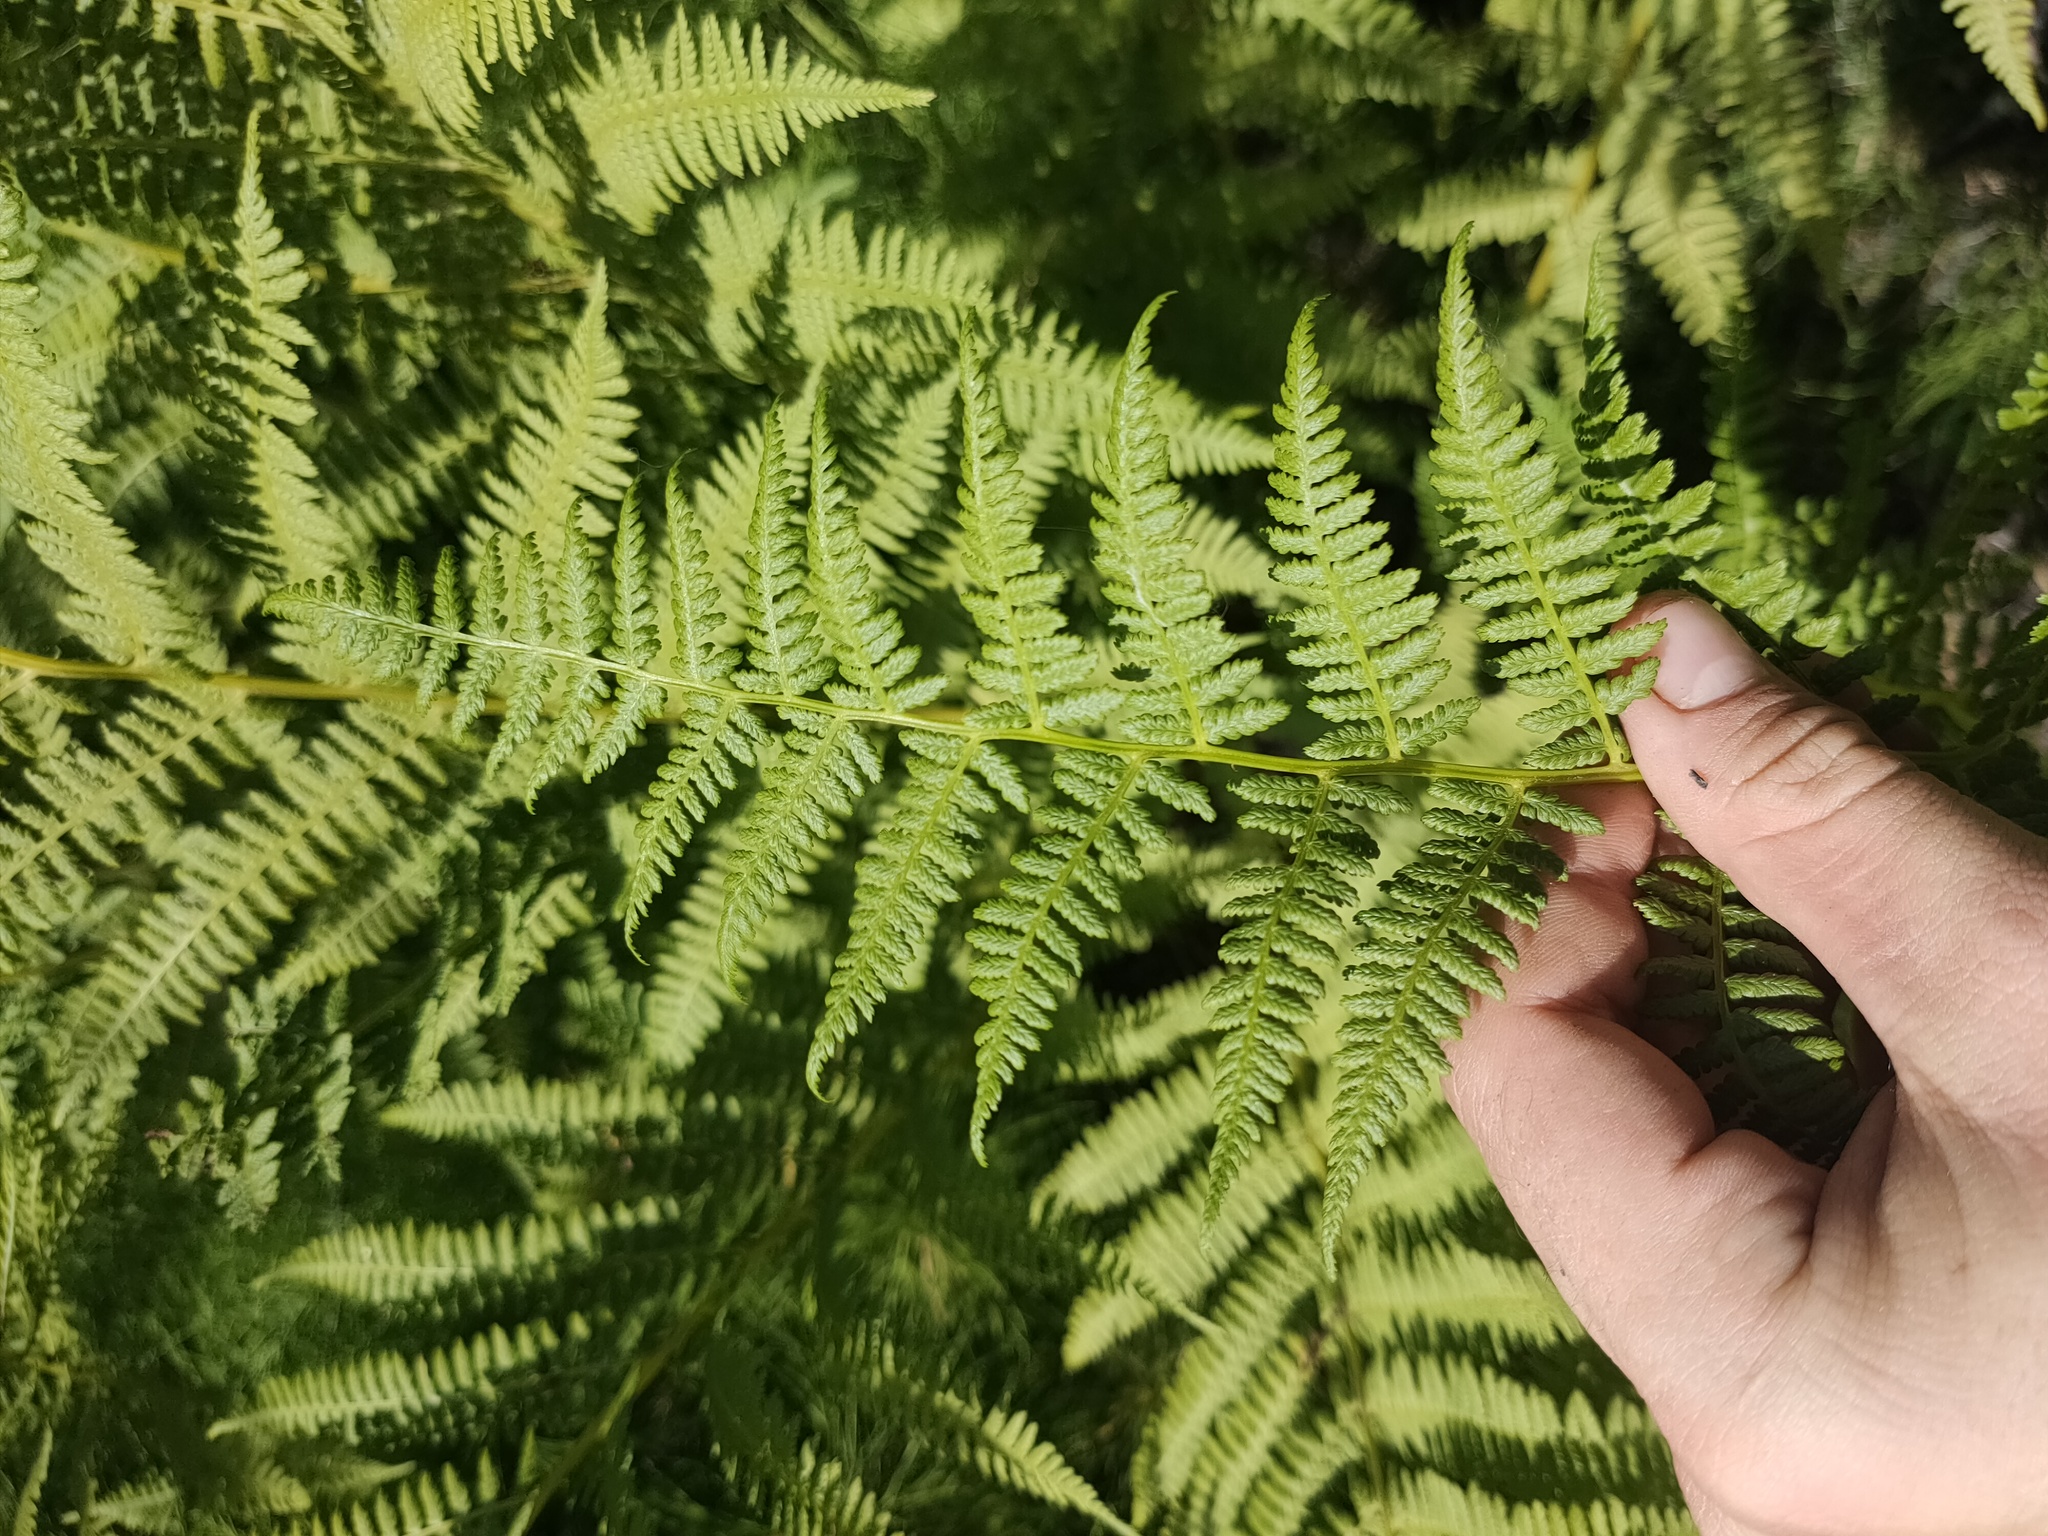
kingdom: Plantae
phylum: Tracheophyta
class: Polypodiopsida
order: Polypodiales
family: Athyriaceae
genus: Athyrium
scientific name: Athyrium filix-femina
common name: Lady fern
